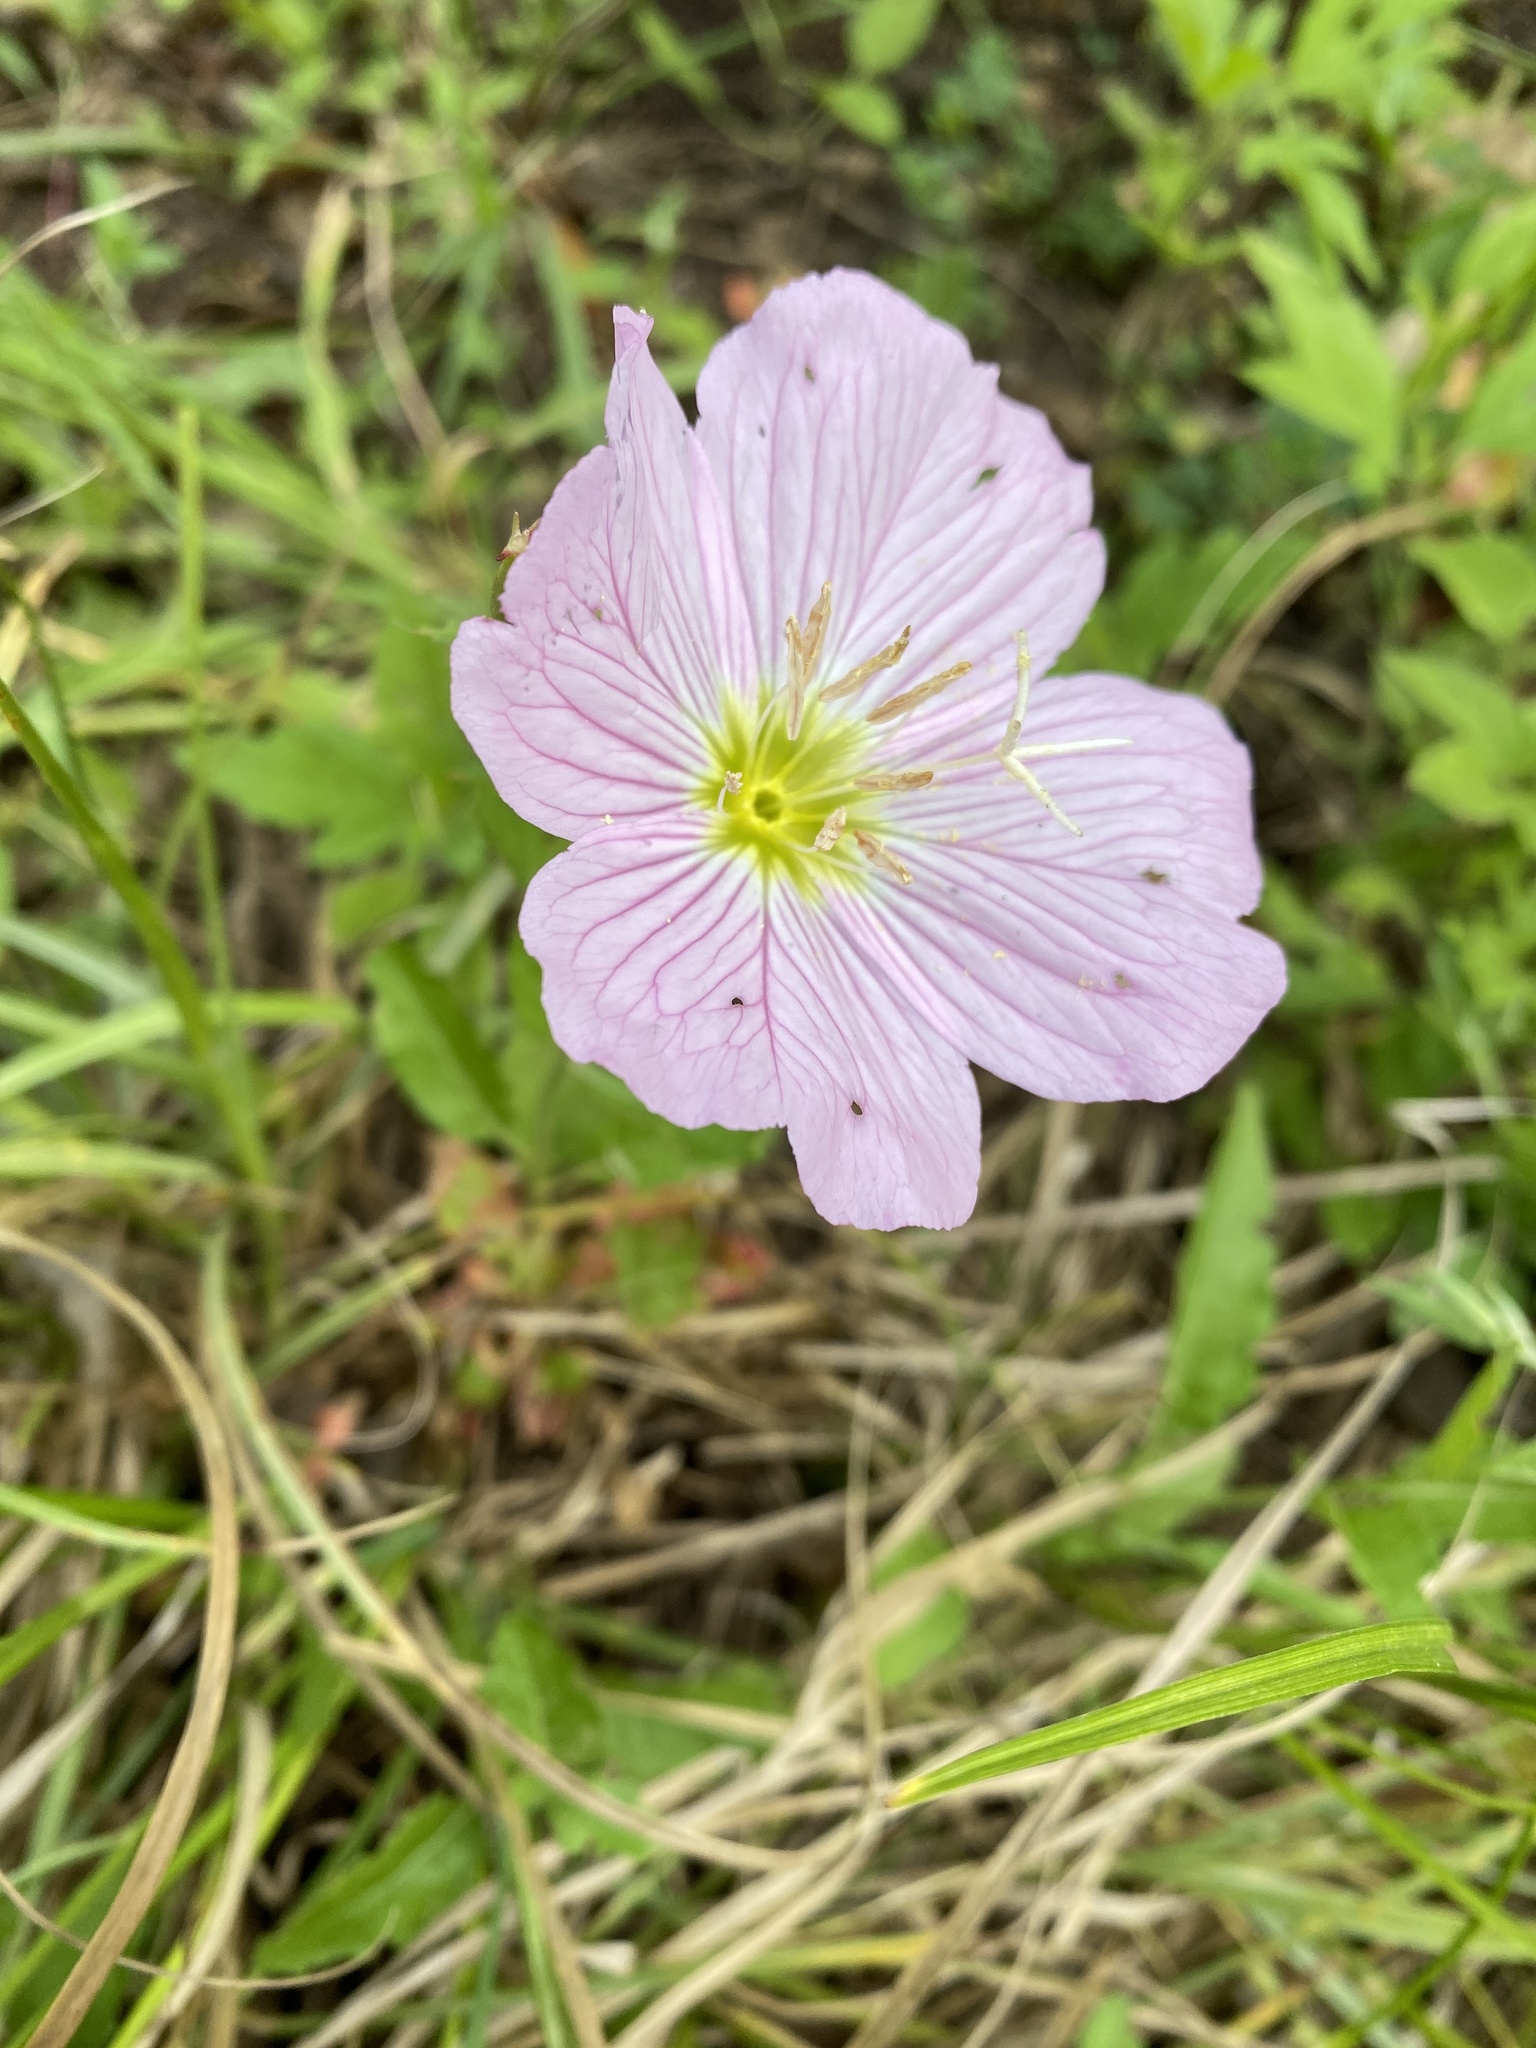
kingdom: Plantae
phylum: Tracheophyta
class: Magnoliopsida
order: Myrtales
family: Onagraceae
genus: Oenothera
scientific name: Oenothera speciosa
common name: White evening-primrose
